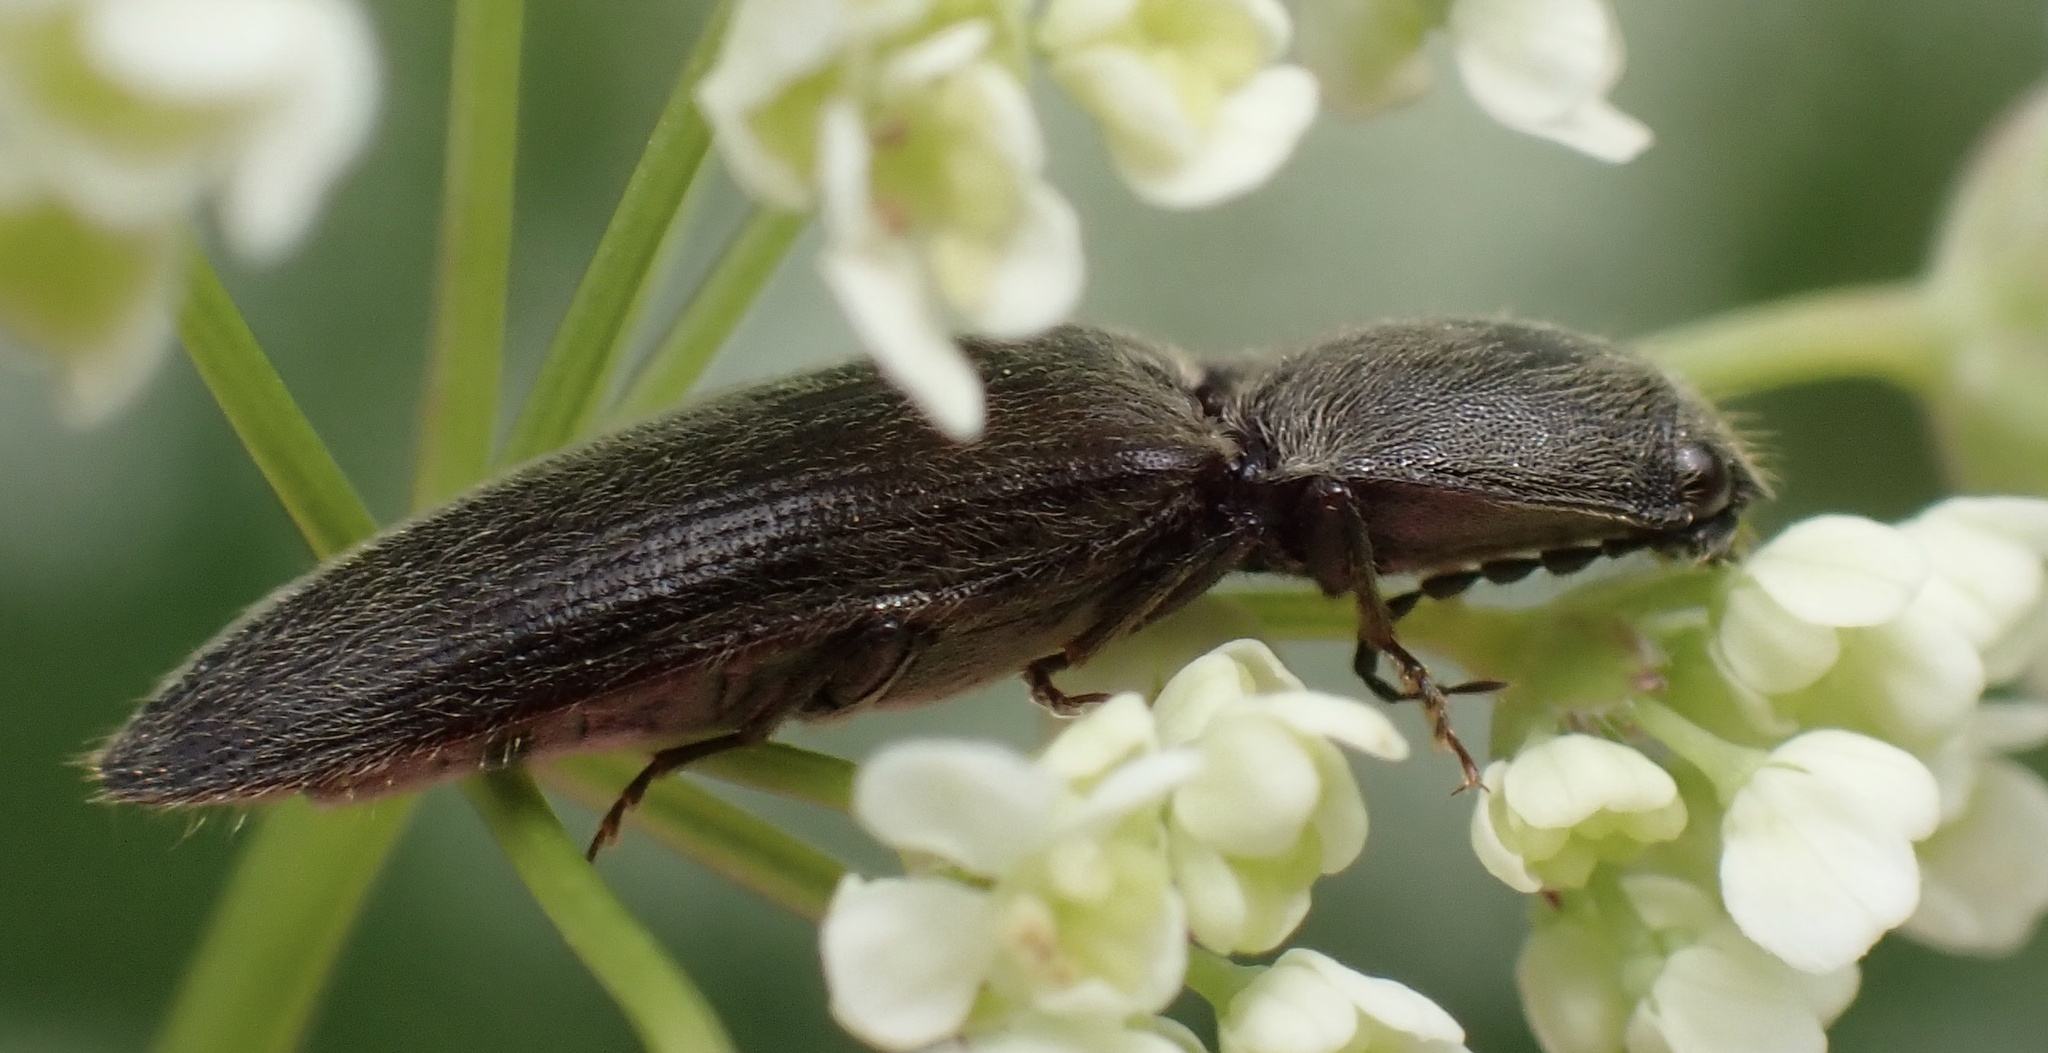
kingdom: Animalia
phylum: Arthropoda
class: Insecta
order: Coleoptera
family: Elateridae
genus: Athous
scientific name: Athous haemorrhoidalis
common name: Red-brown click beetle
